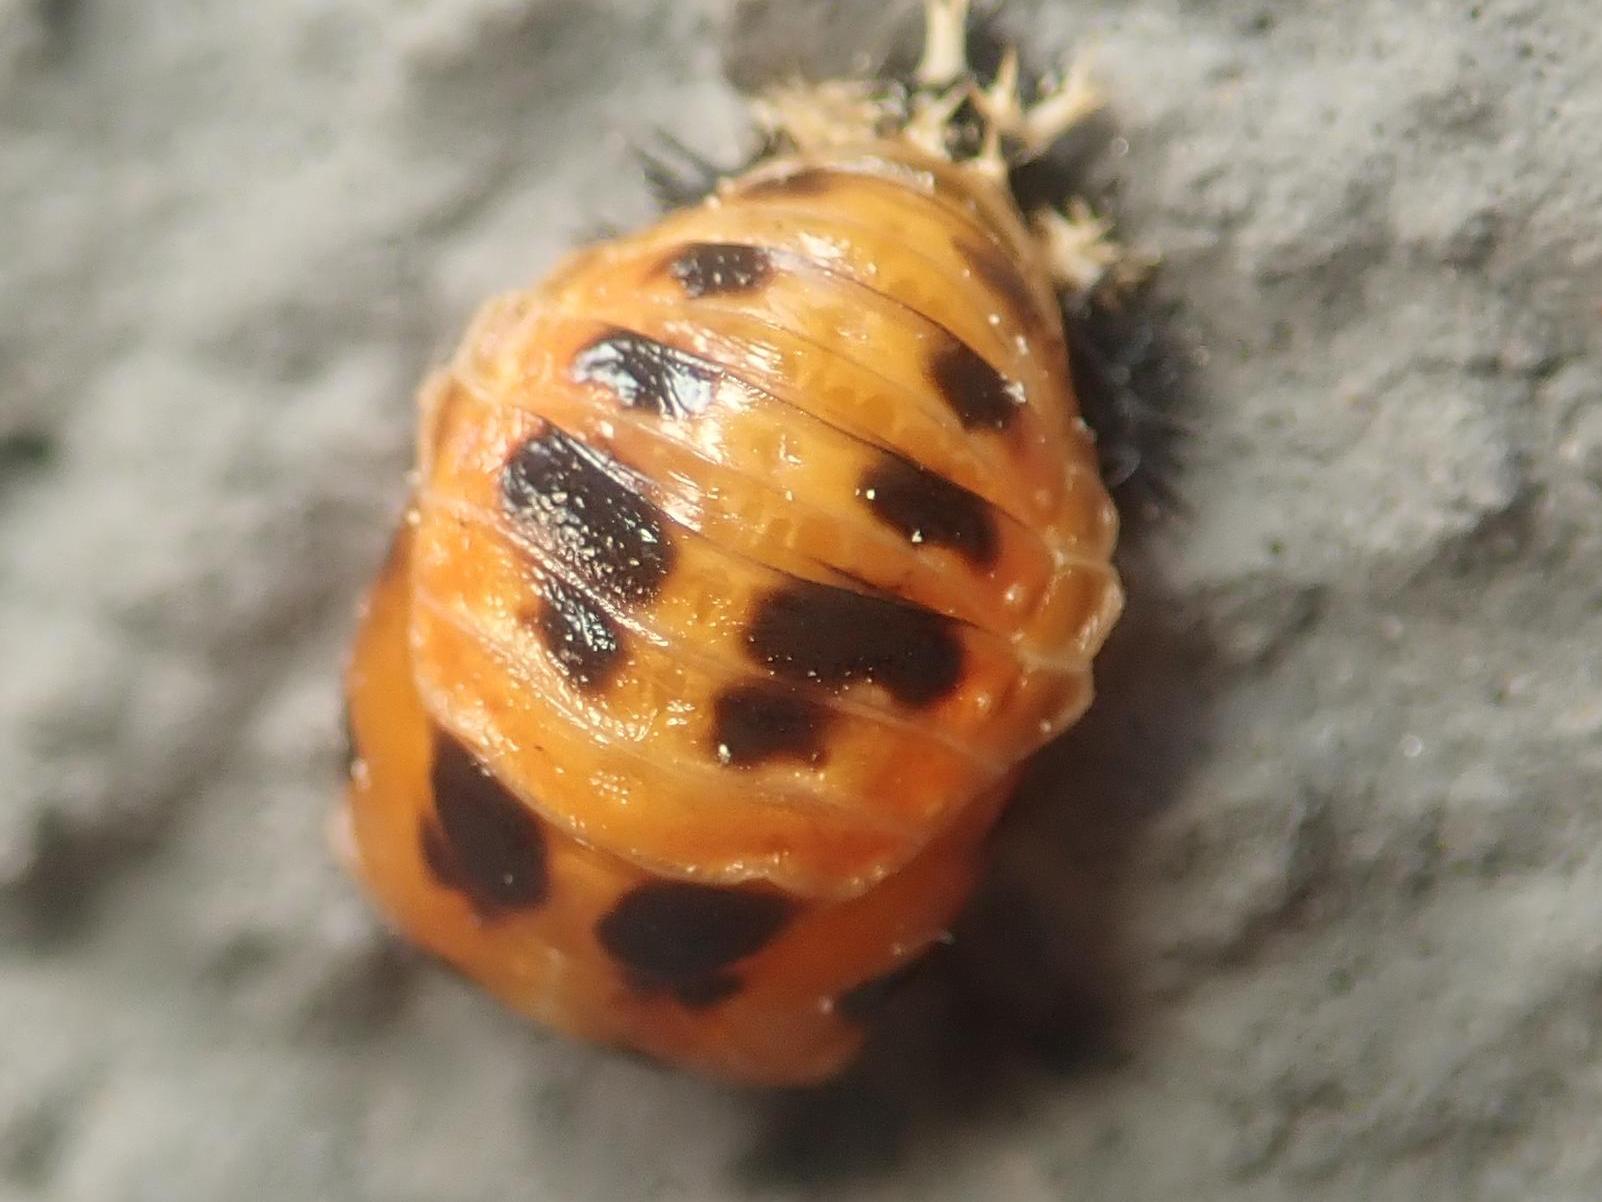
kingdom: Animalia
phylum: Arthropoda
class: Insecta
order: Coleoptera
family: Coccinellidae
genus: Harmonia
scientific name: Harmonia axyridis
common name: Harlequin ladybird
